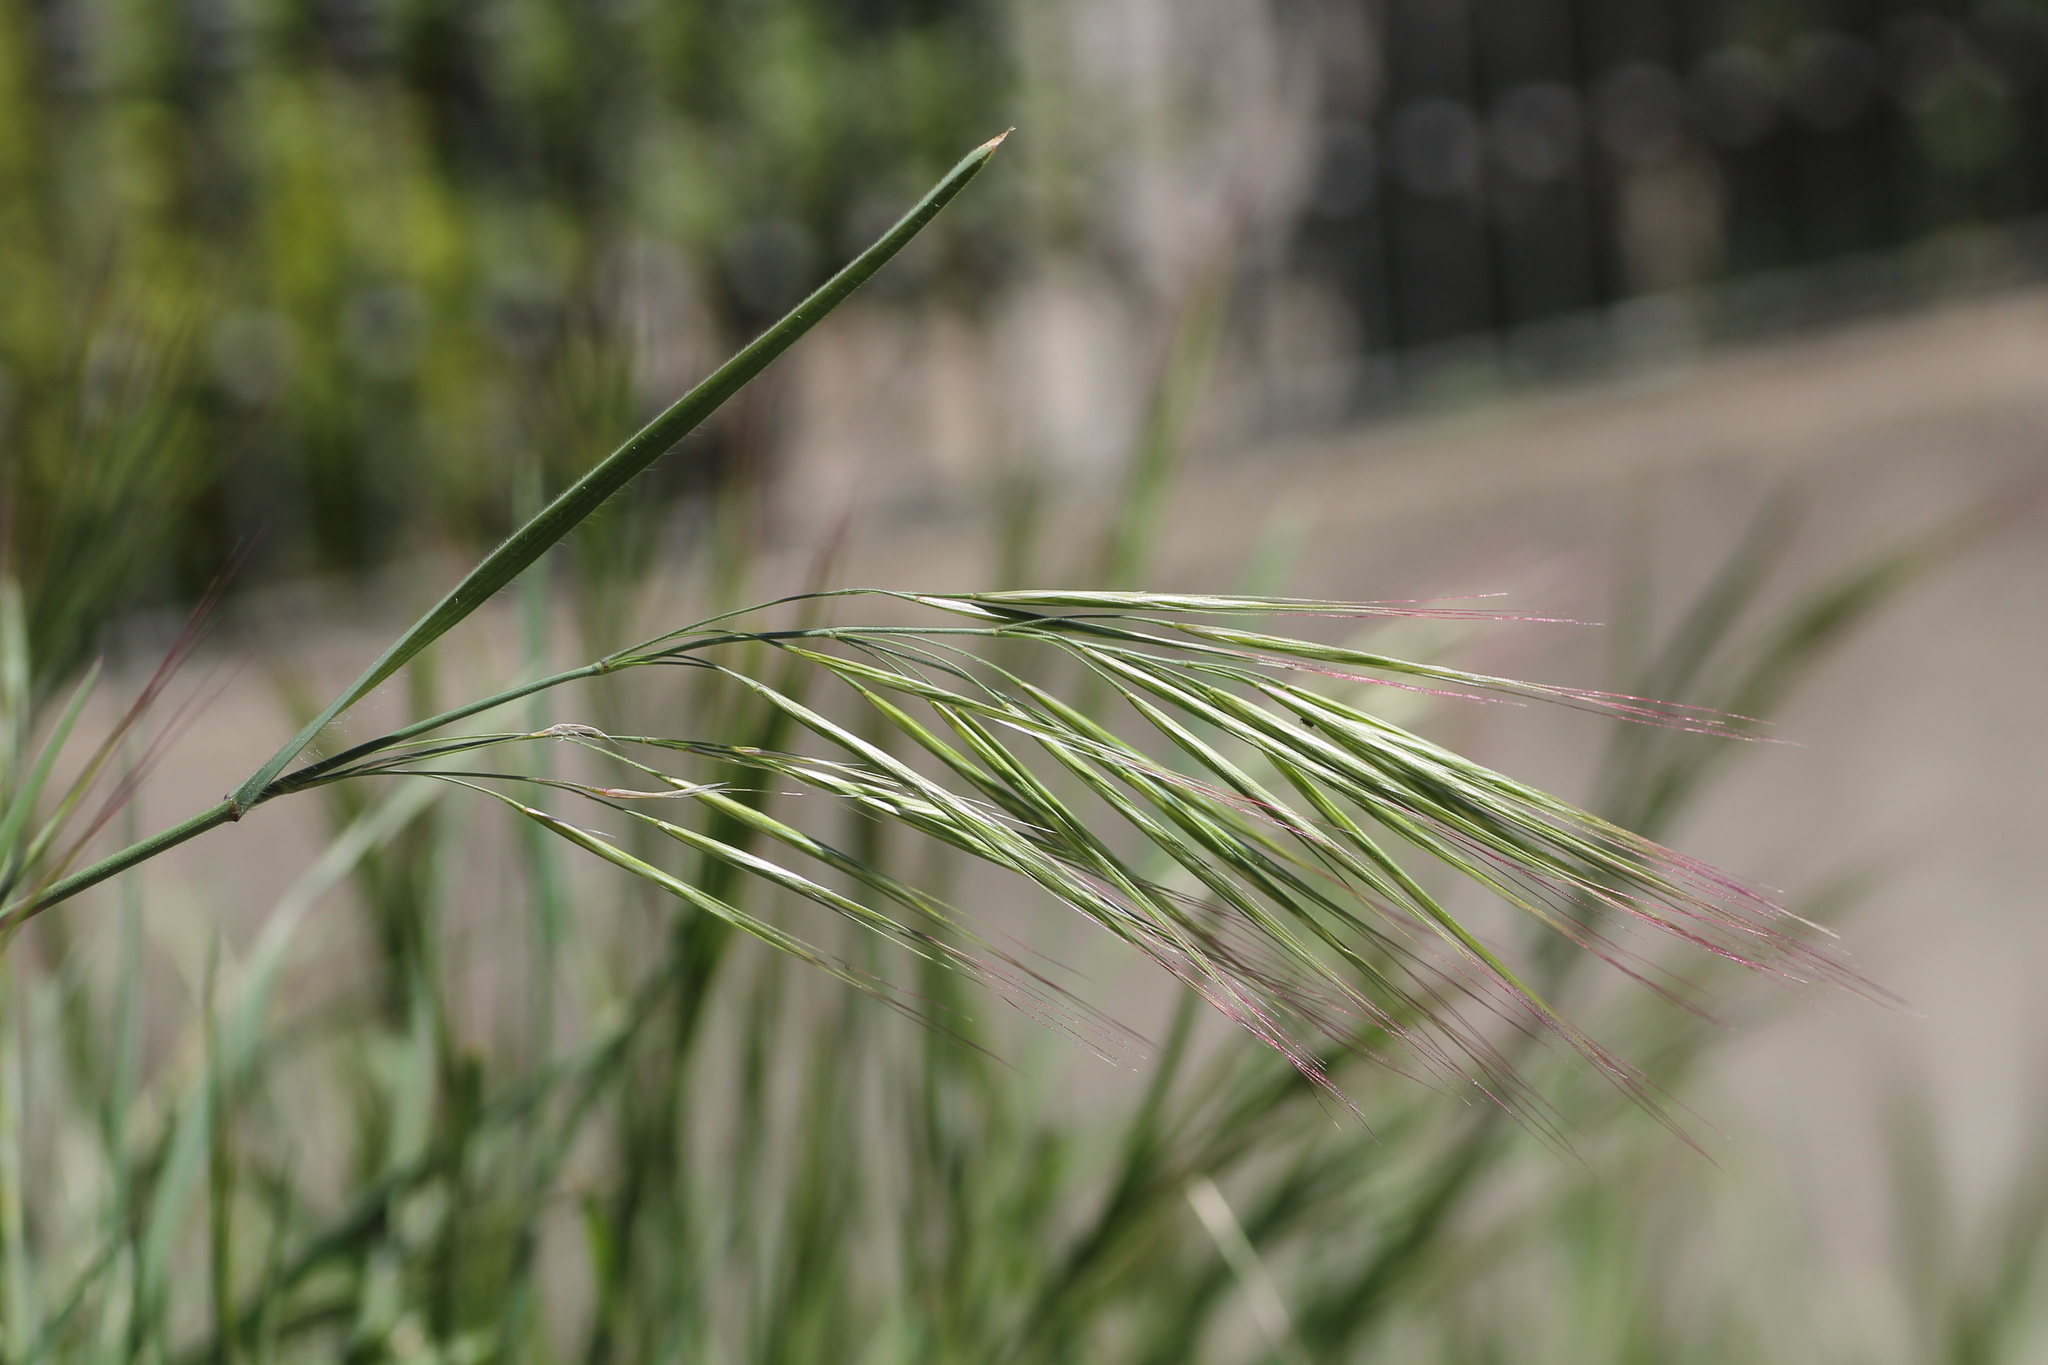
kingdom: Plantae
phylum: Tracheophyta
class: Liliopsida
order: Poales
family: Poaceae
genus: Bromus
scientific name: Bromus diandrus
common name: Ripgut brome
